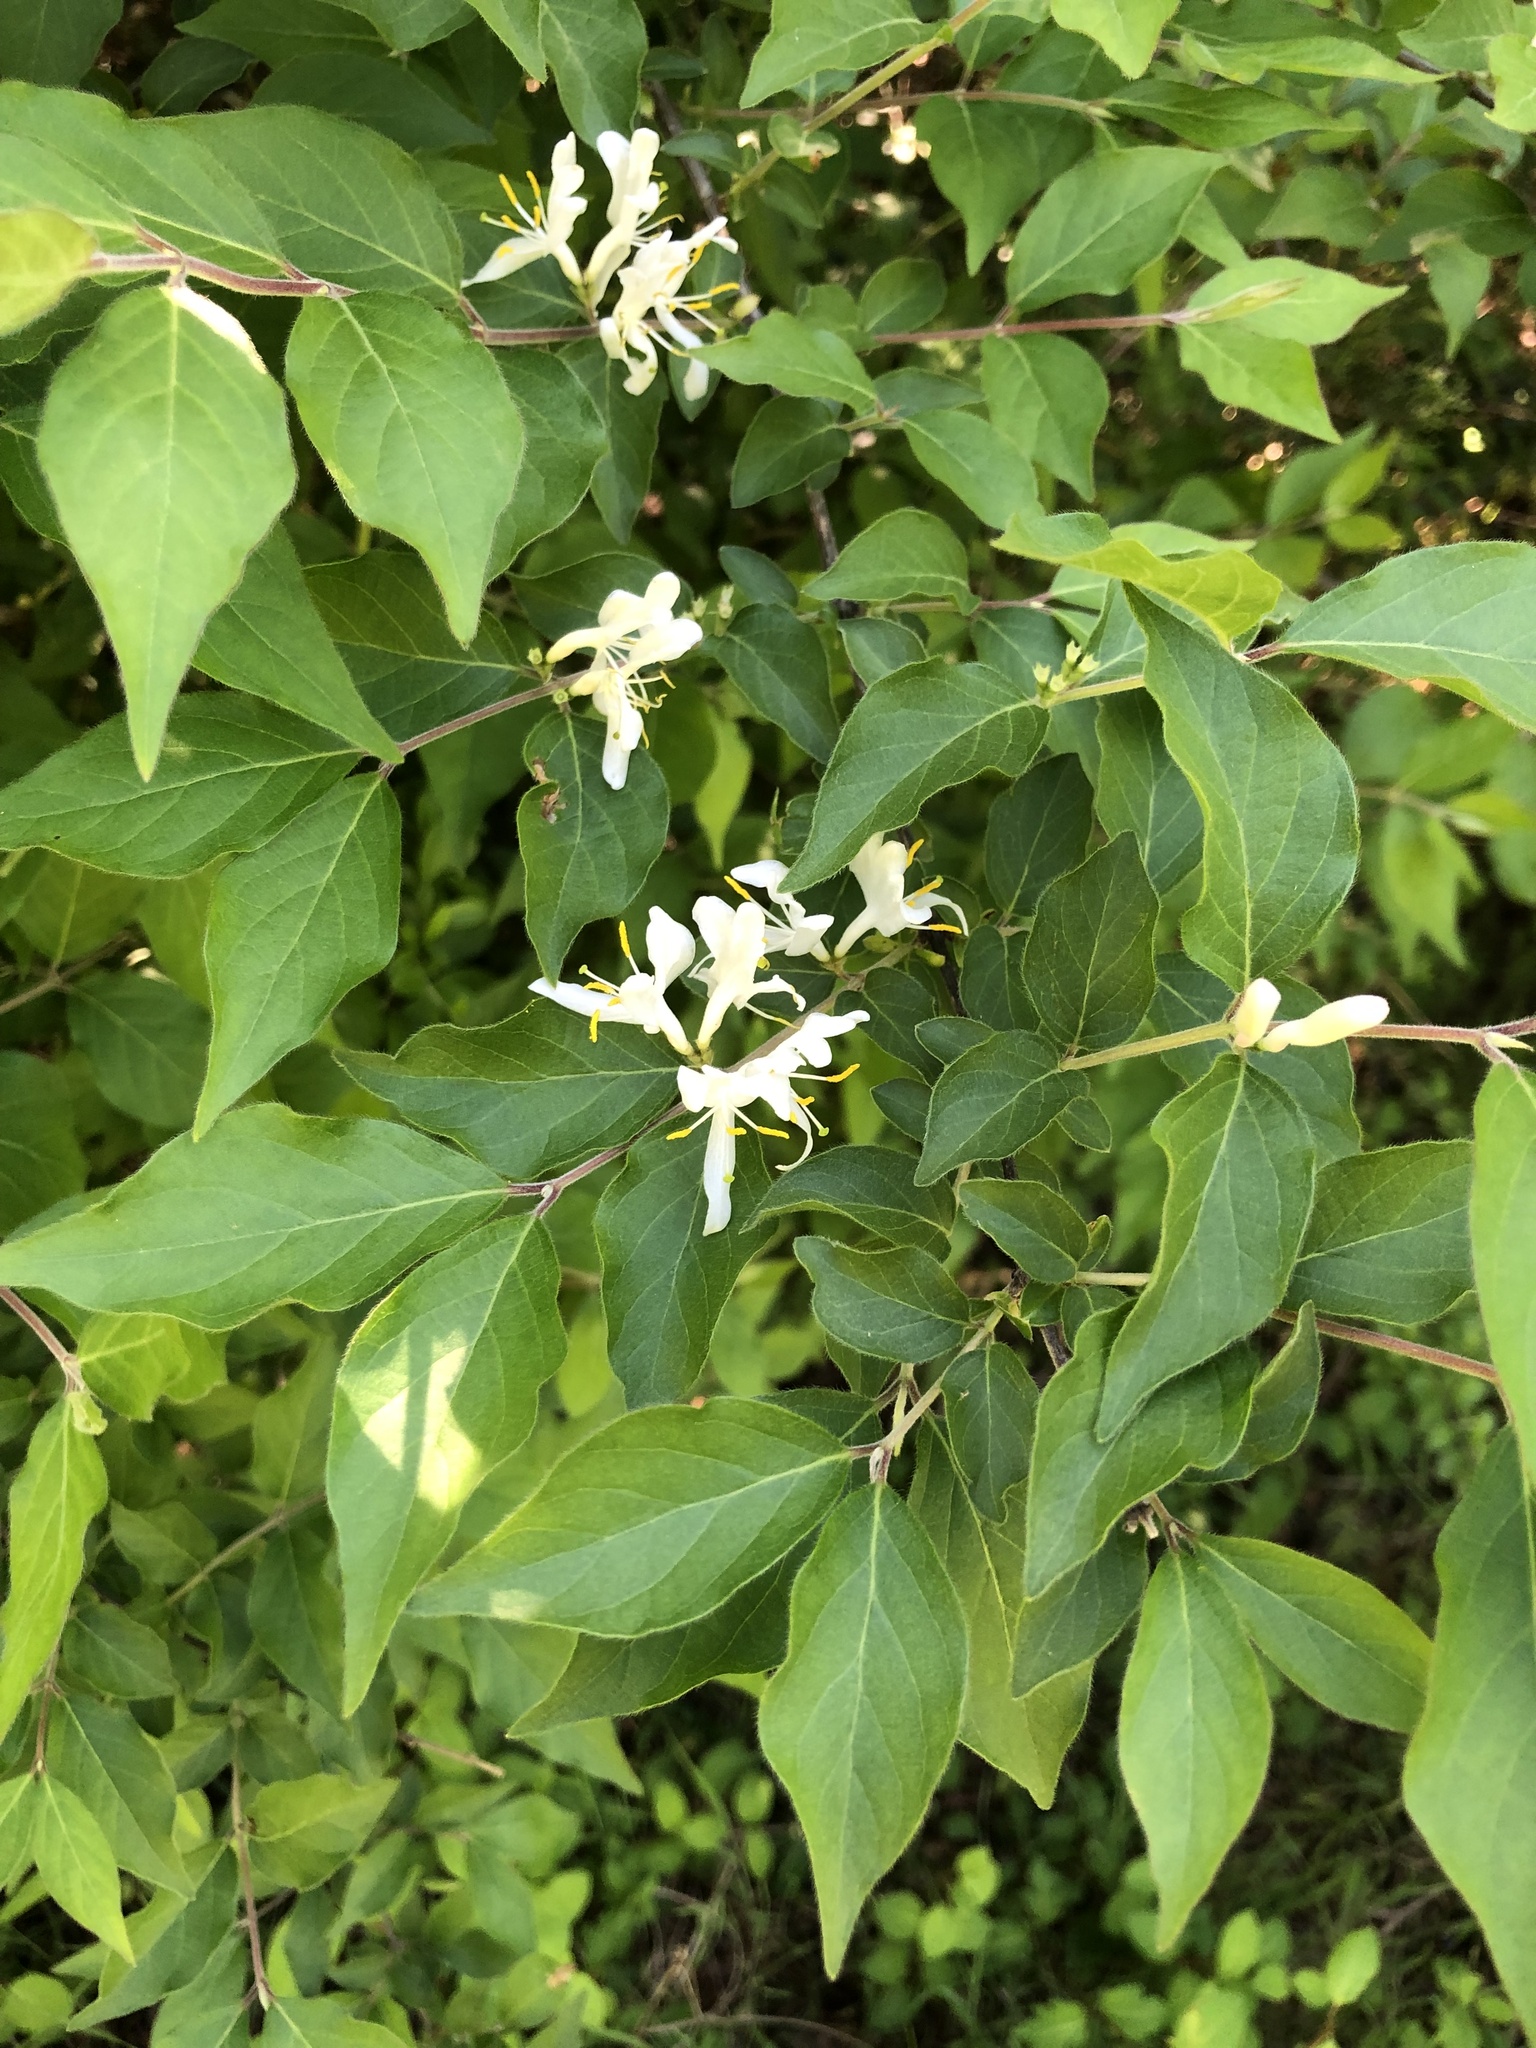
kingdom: Plantae
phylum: Tracheophyta
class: Magnoliopsida
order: Dipsacales
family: Caprifoliaceae
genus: Lonicera
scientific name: Lonicera maackii
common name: Amur honeysuckle
